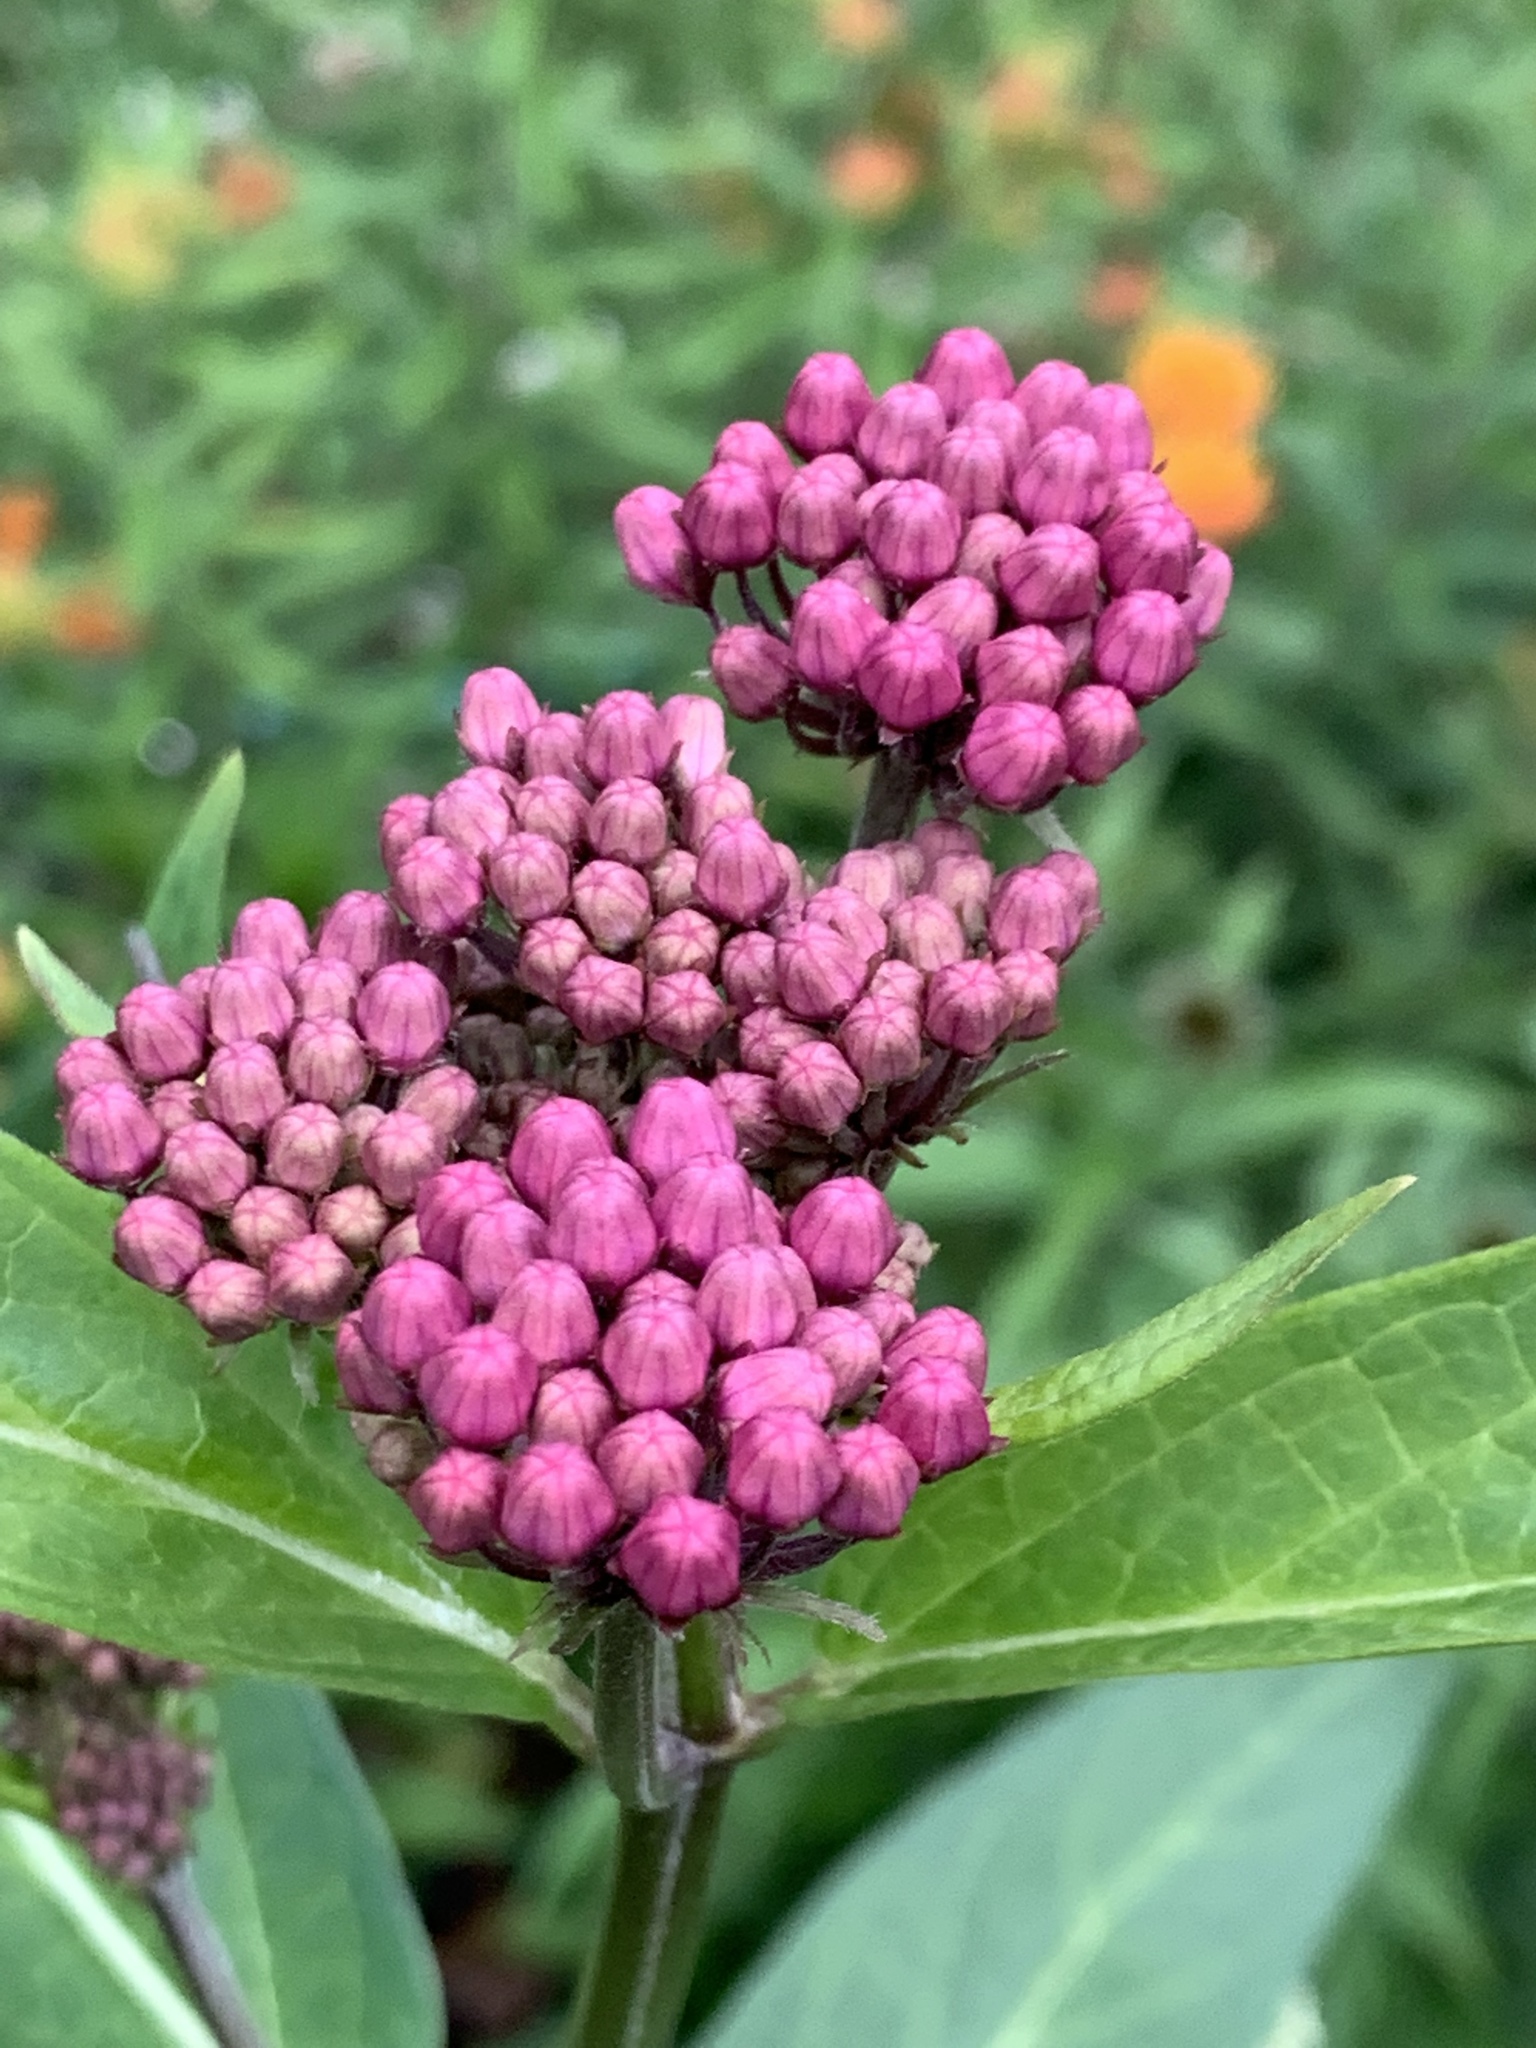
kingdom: Plantae
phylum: Tracheophyta
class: Magnoliopsida
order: Gentianales
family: Apocynaceae
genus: Asclepias
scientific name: Asclepias incarnata
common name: Swamp milkweed
